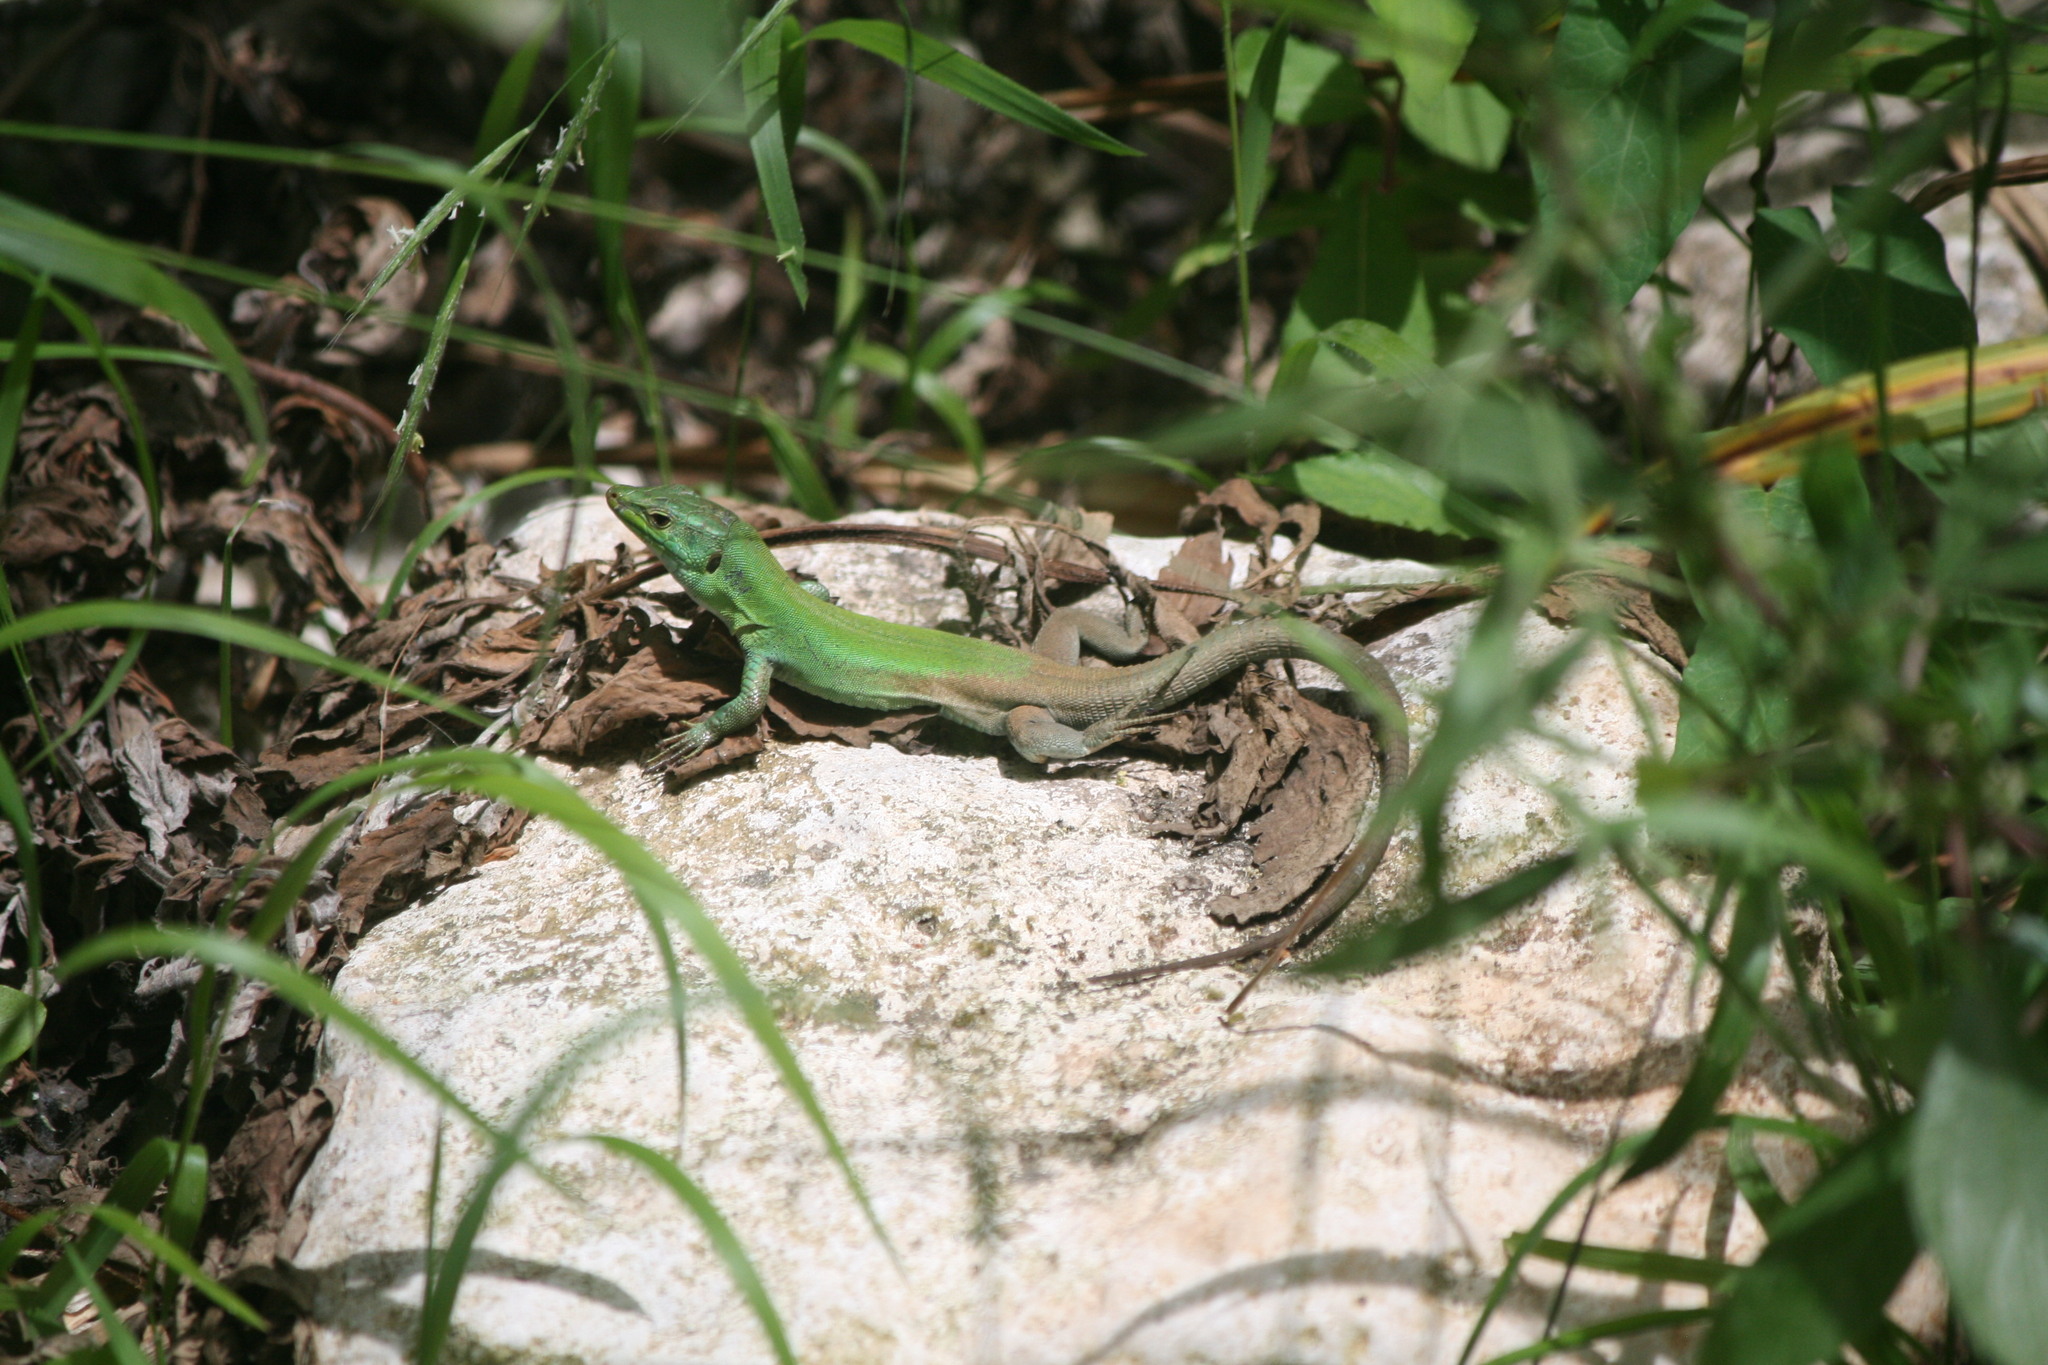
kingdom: Animalia
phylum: Chordata
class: Squamata
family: Lacertidae
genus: Podarcis
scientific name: Podarcis siculus
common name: Italian wall lizard
